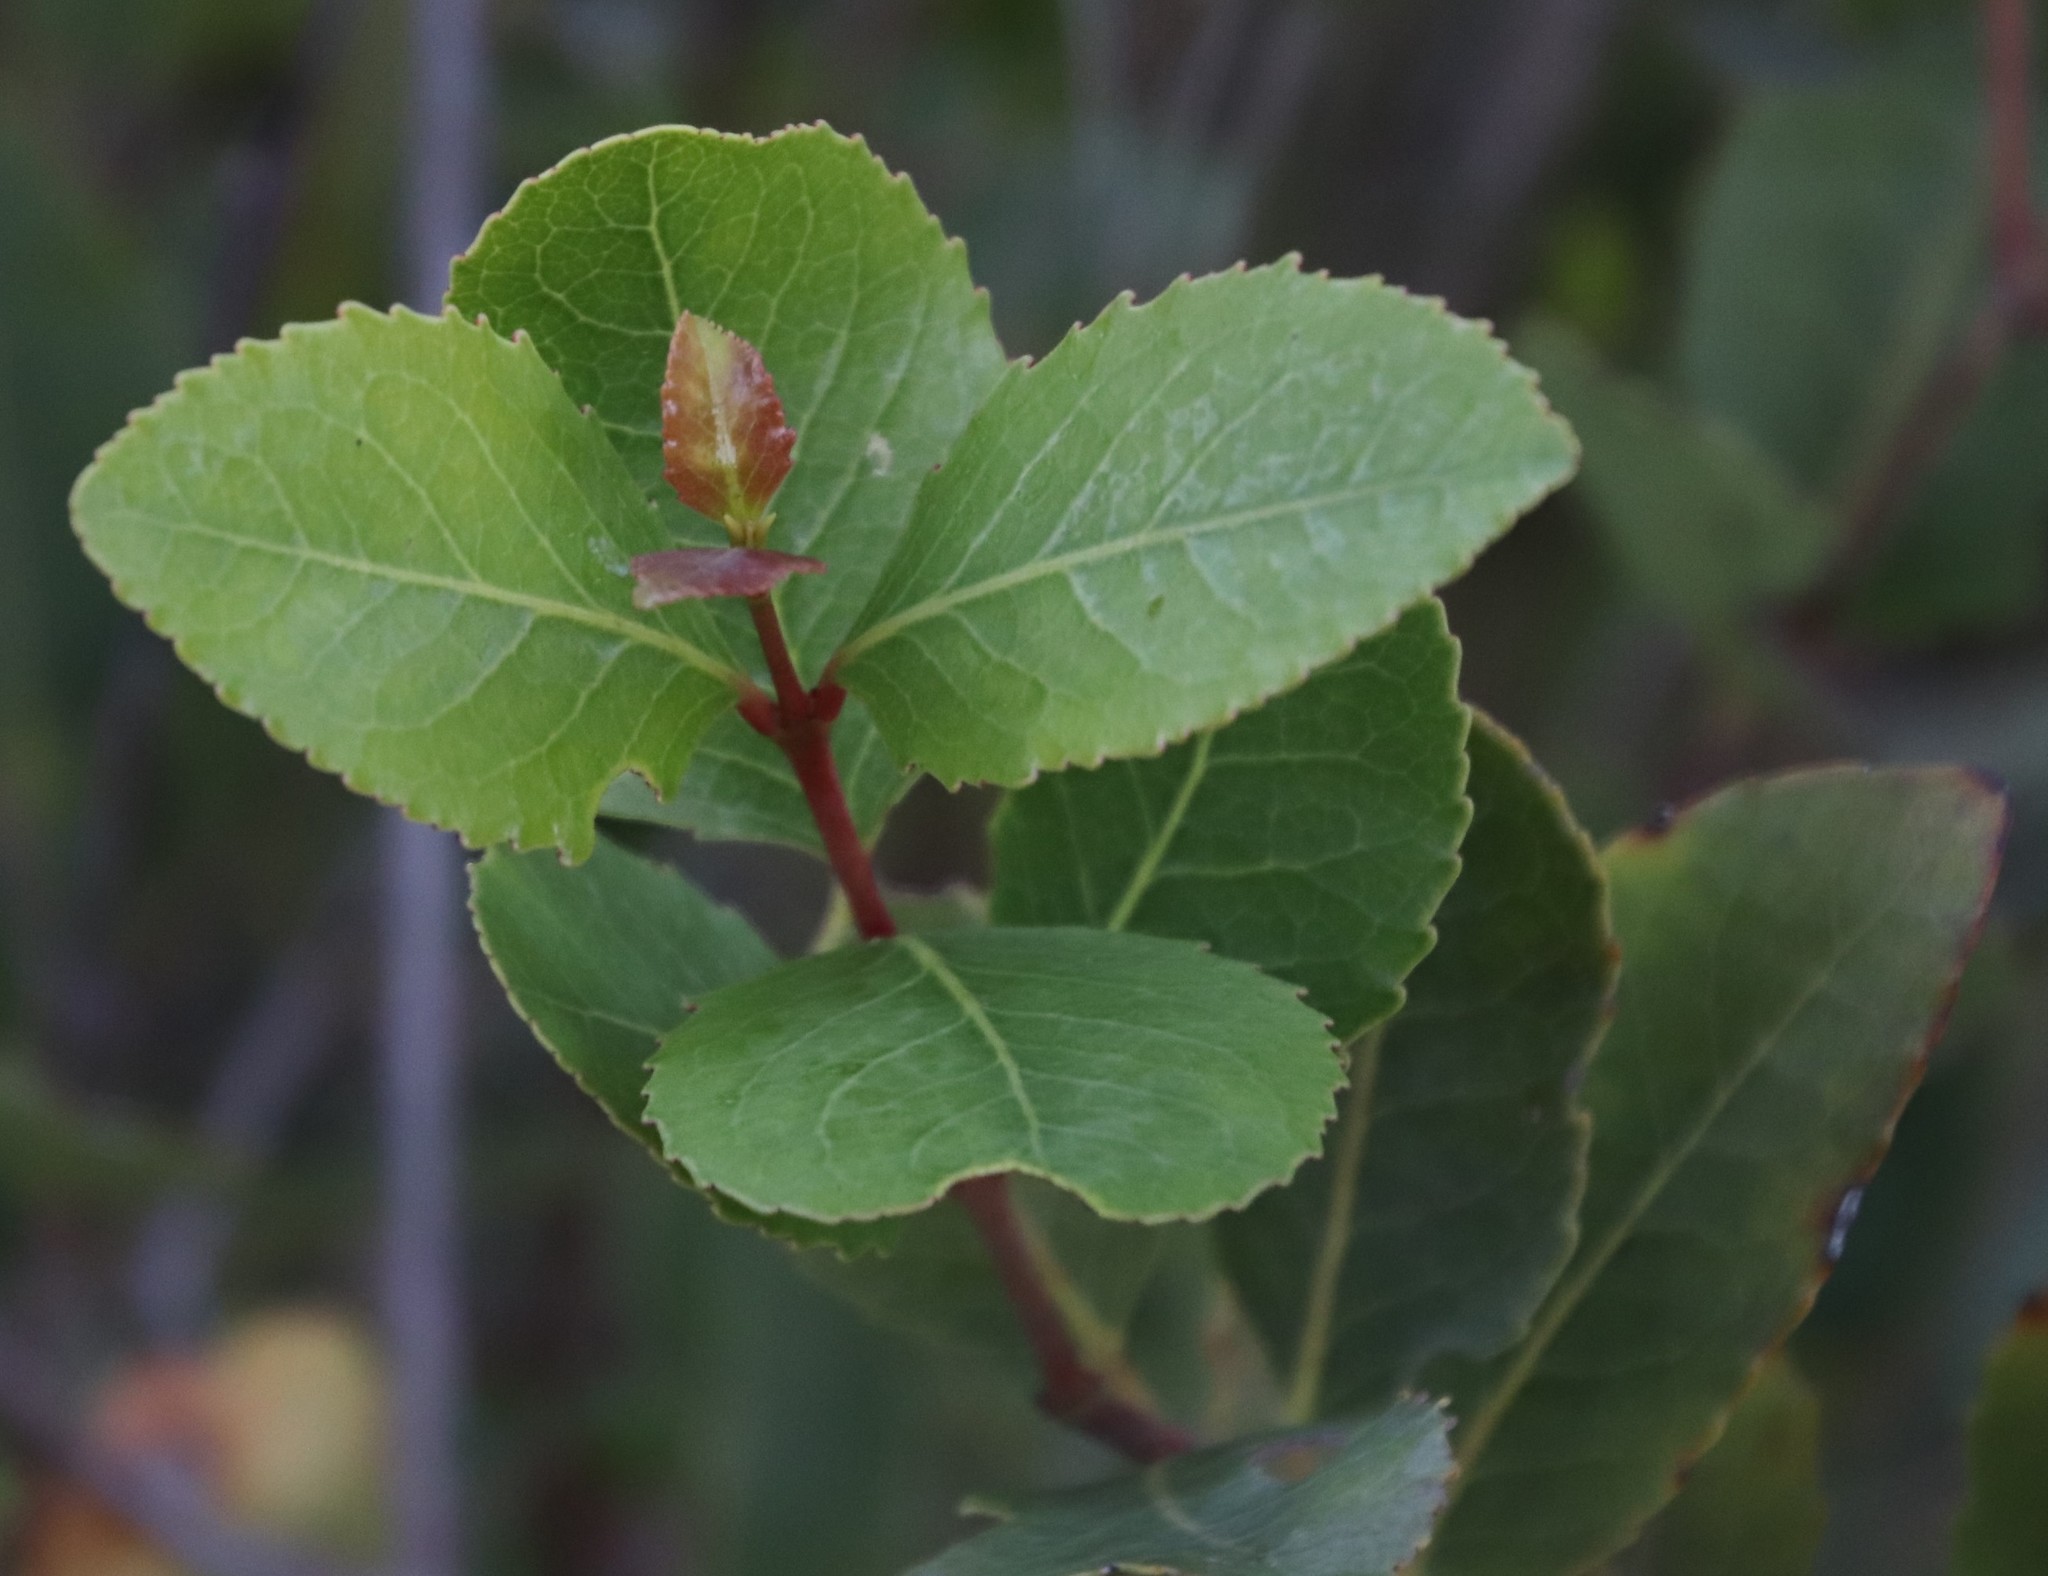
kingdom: Plantae
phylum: Tracheophyta
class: Magnoliopsida
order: Celastrales
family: Celastraceae
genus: Cassine
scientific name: Cassine peragua
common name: Cape saffron
